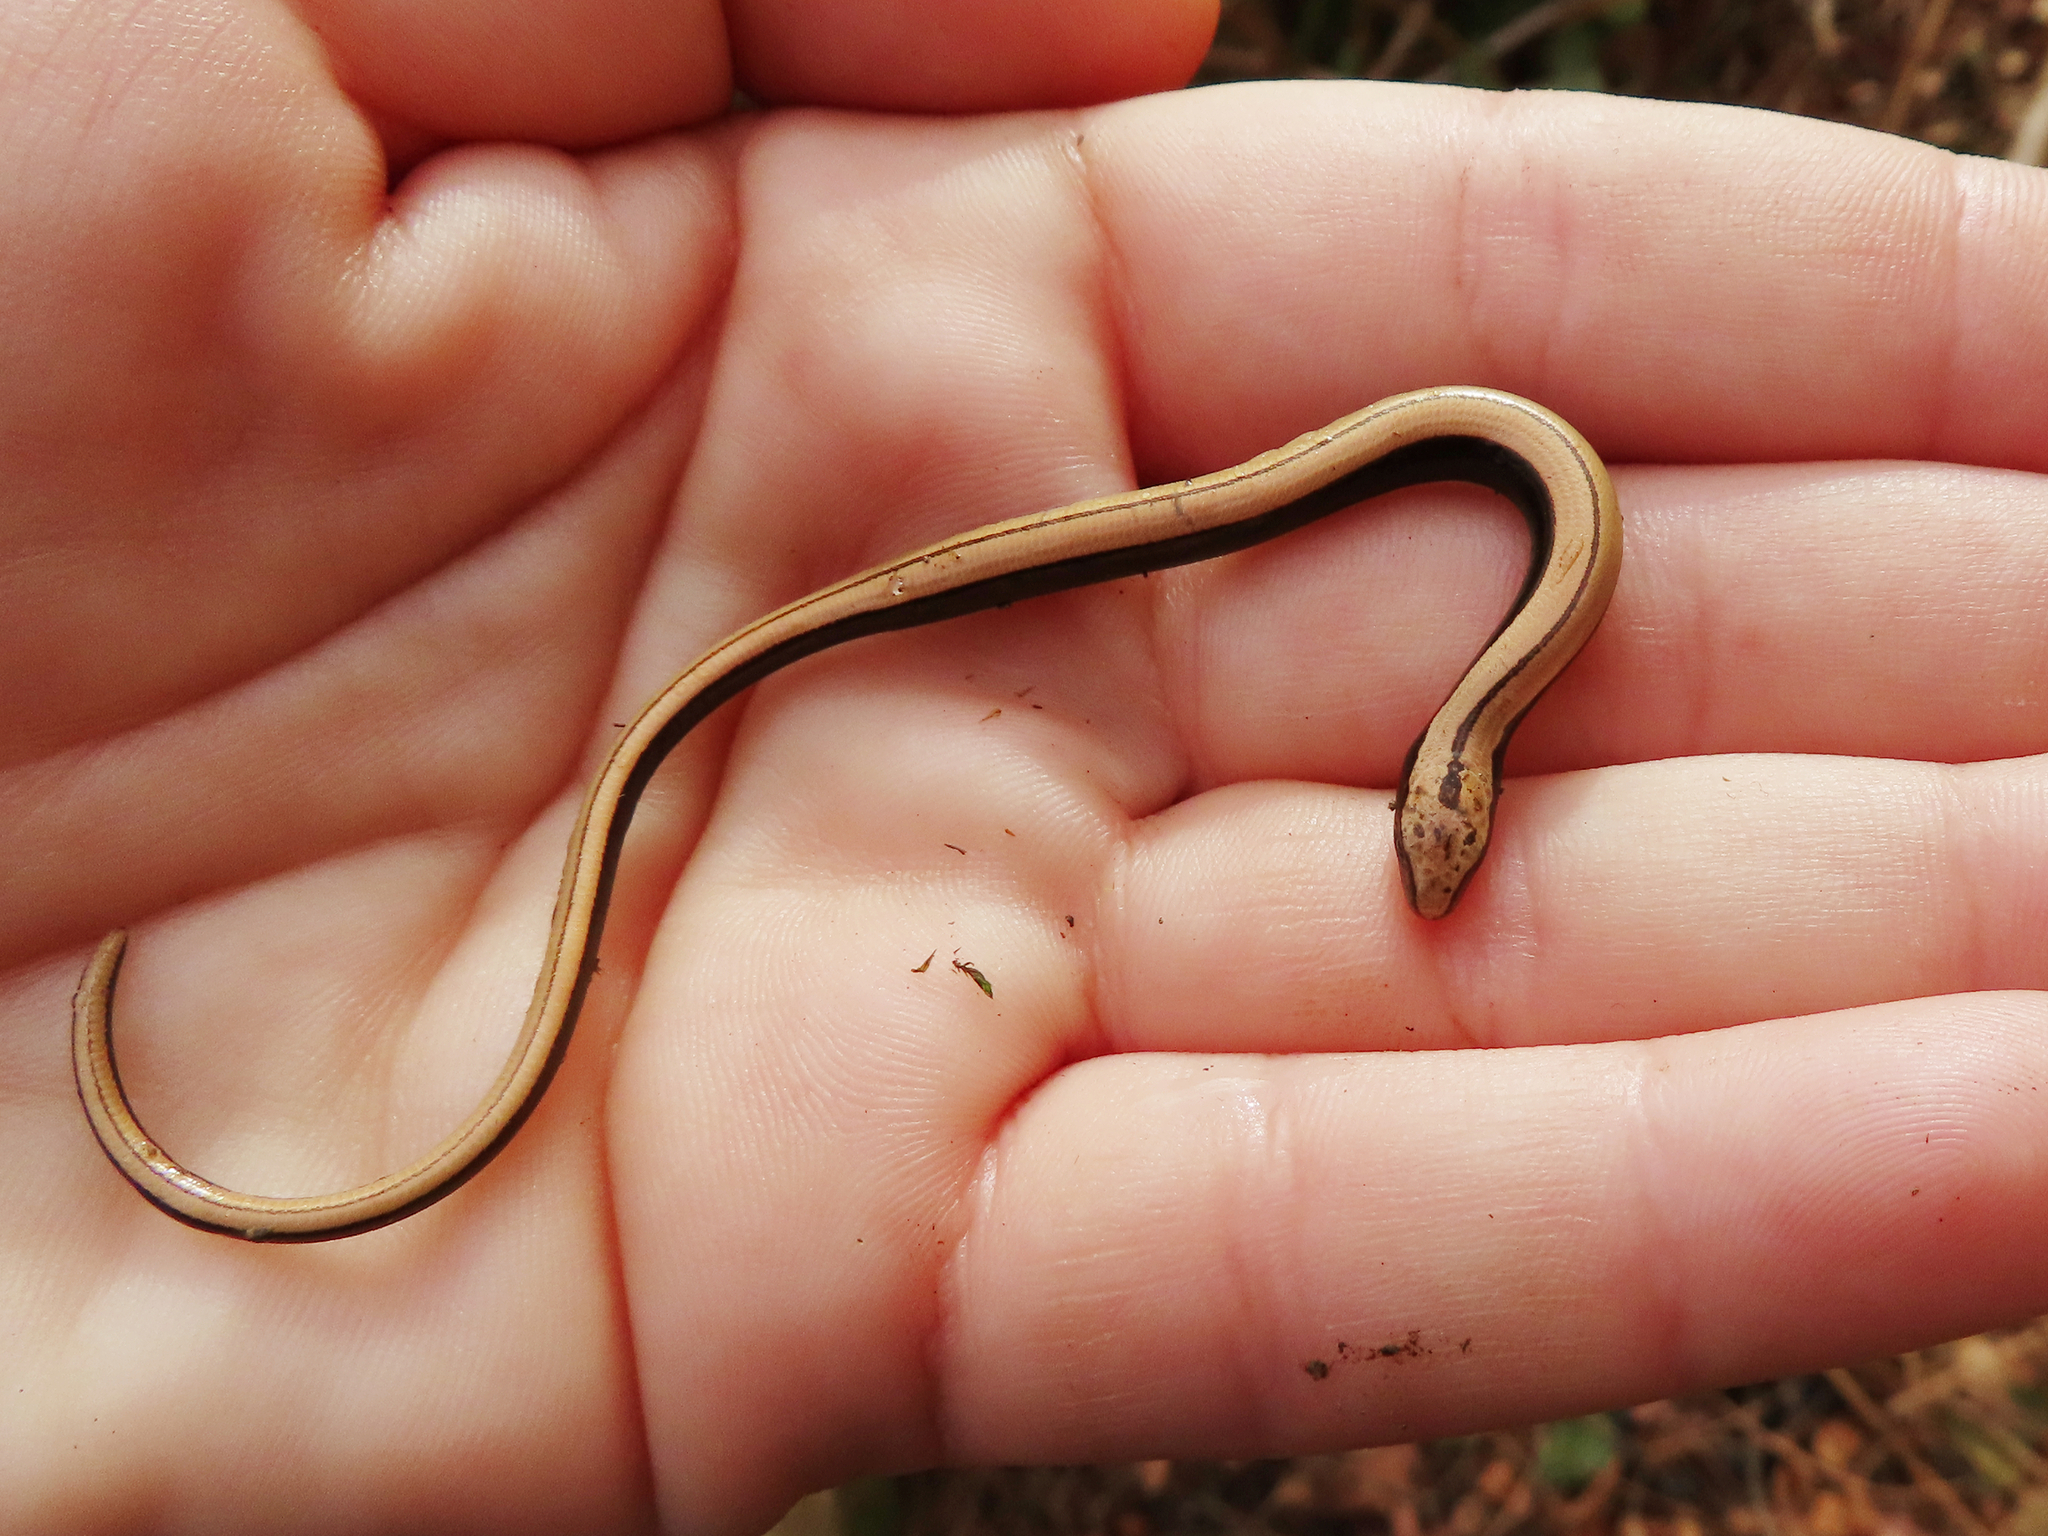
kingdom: Animalia
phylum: Chordata
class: Squamata
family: Anguidae
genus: Anguis
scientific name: Anguis colchica
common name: Slow worm
